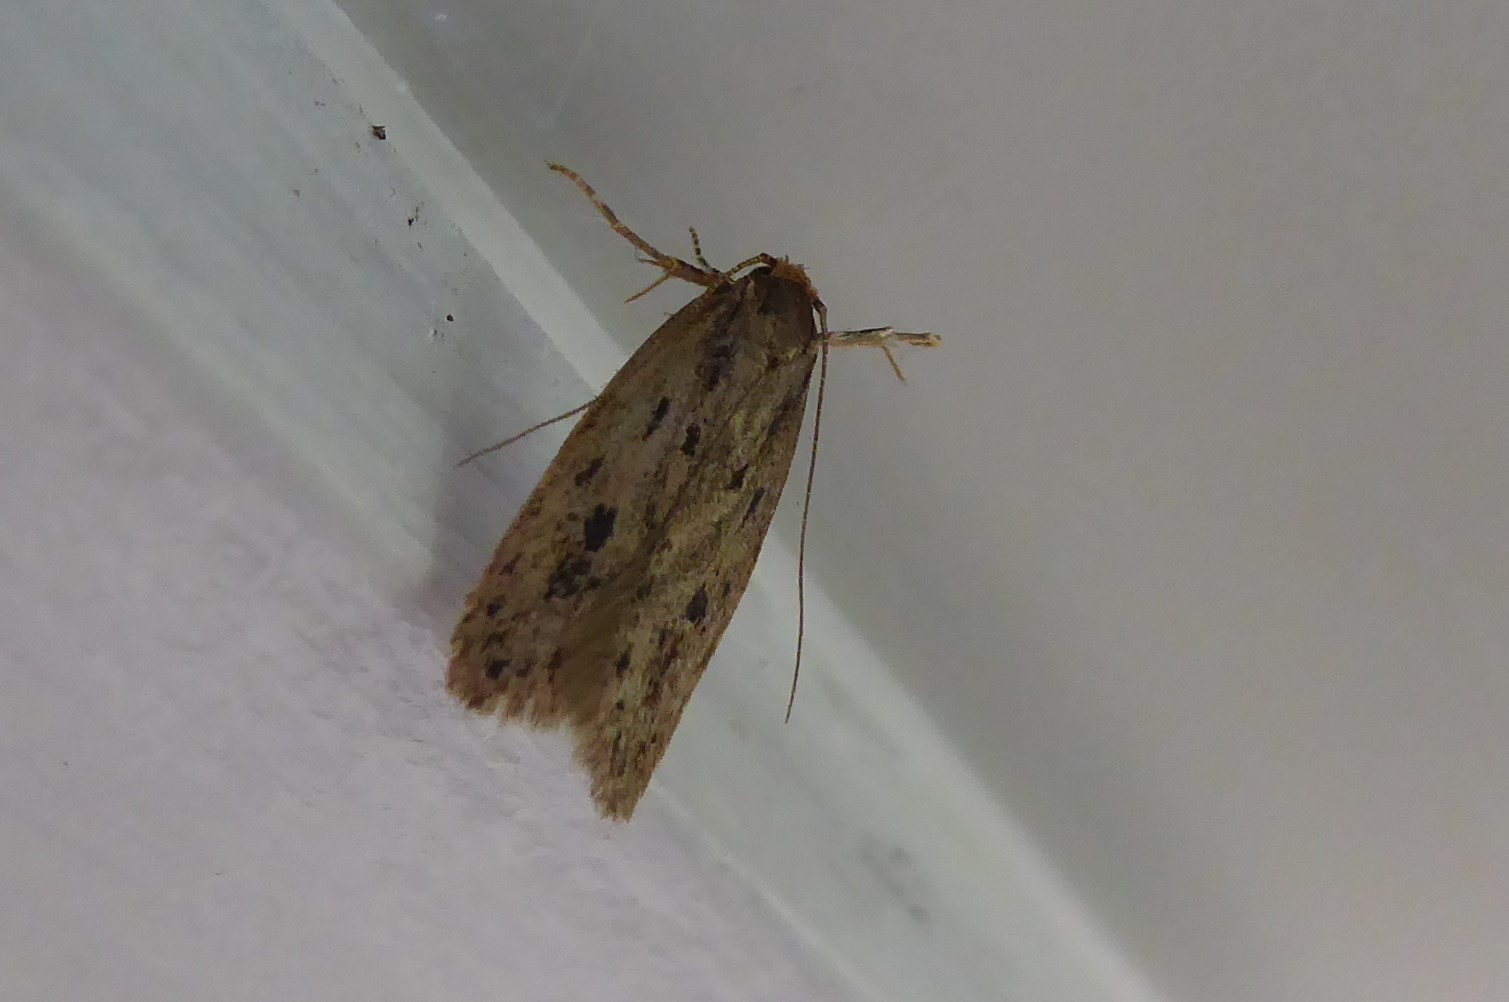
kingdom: Animalia
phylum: Arthropoda
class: Insecta
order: Lepidoptera
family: Oecophoridae
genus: Hofmannophila
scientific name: Hofmannophila pseudospretella
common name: Brown house moth
